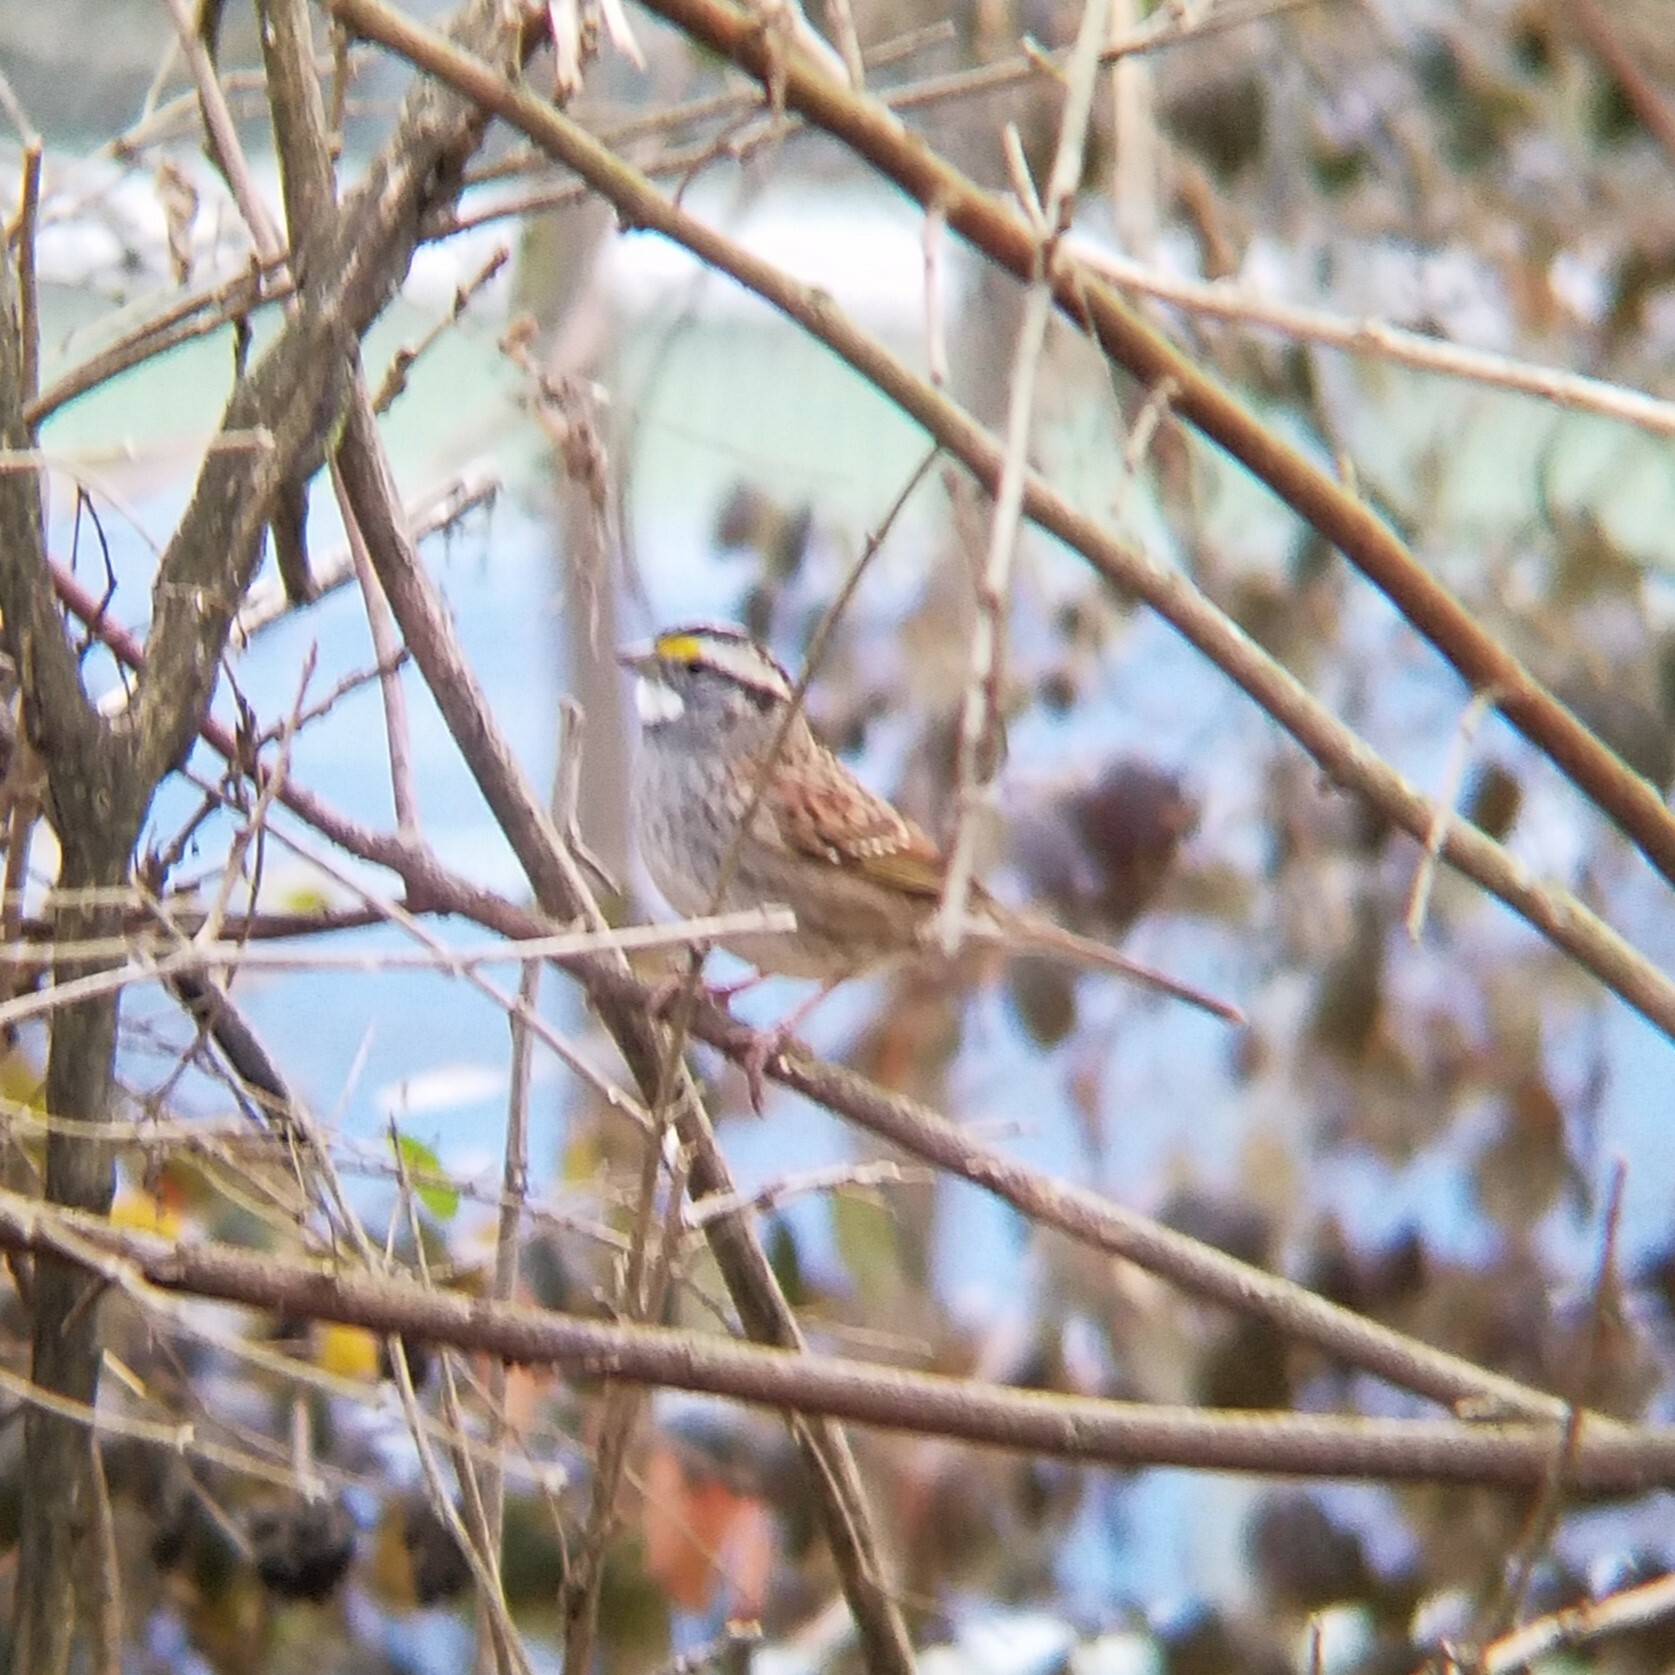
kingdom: Animalia
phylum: Chordata
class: Aves
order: Passeriformes
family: Passerellidae
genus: Zonotrichia
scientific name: Zonotrichia albicollis
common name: White-throated sparrow
